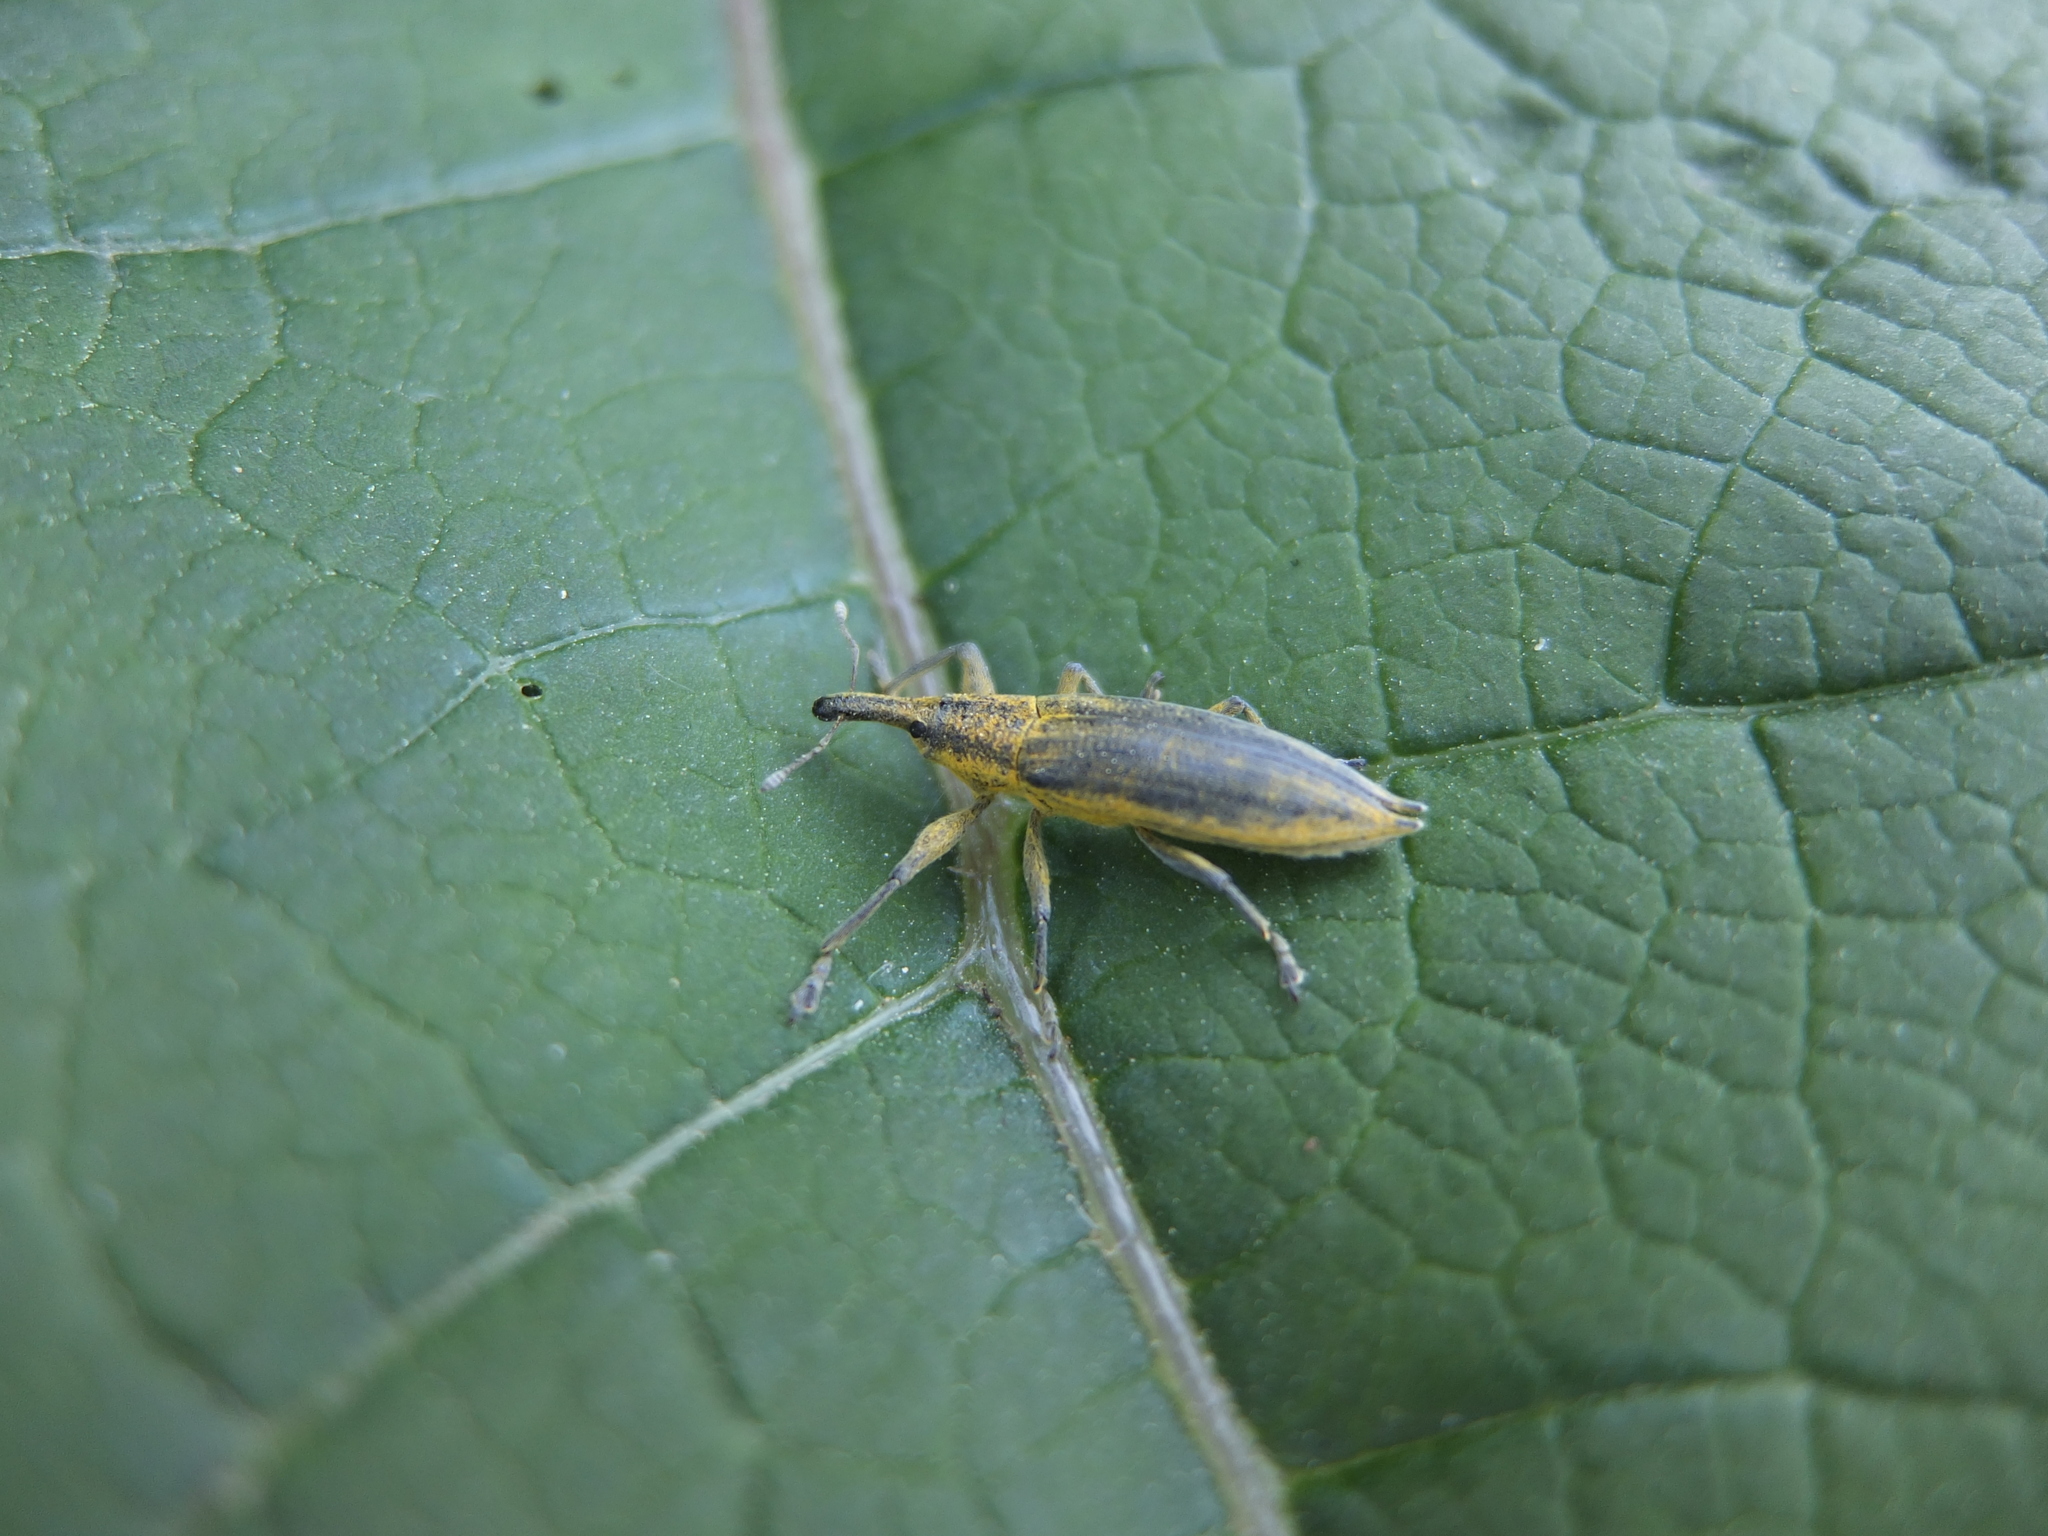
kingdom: Animalia
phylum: Arthropoda
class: Insecta
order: Coleoptera
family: Curculionidae
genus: Lixus
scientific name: Lixus iridis
